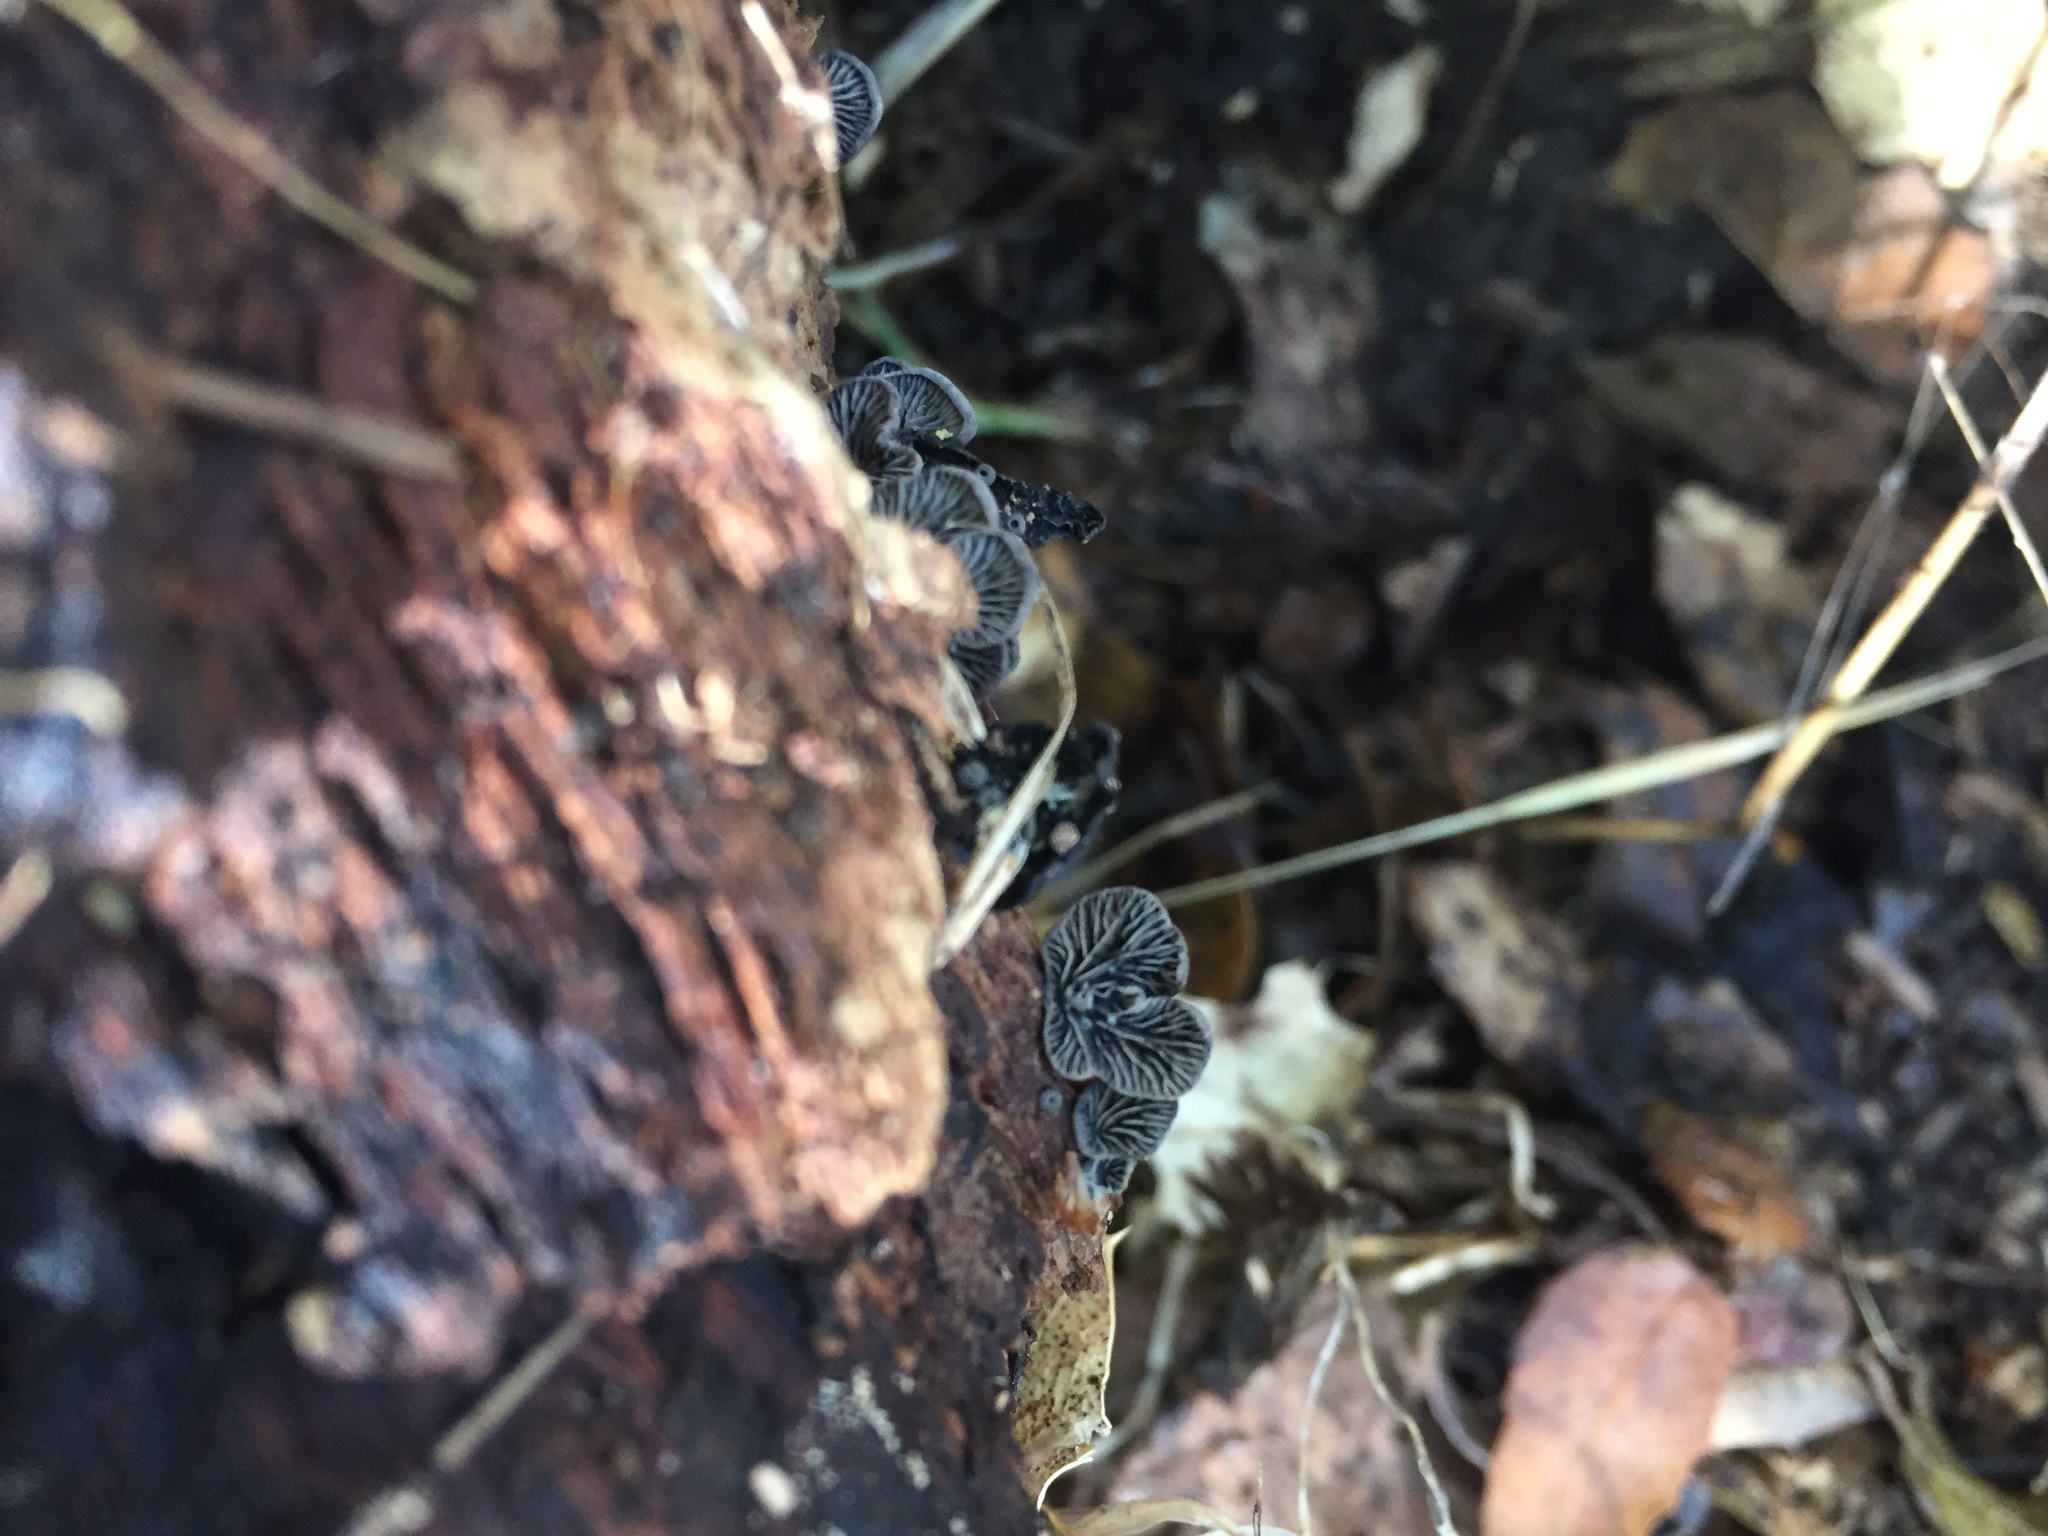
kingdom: Fungi
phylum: Basidiomycota
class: Agaricomycetes
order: Agaricales
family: Pleurotaceae
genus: Resupinatus
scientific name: Resupinatus applicatus
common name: Smoked oysterling
